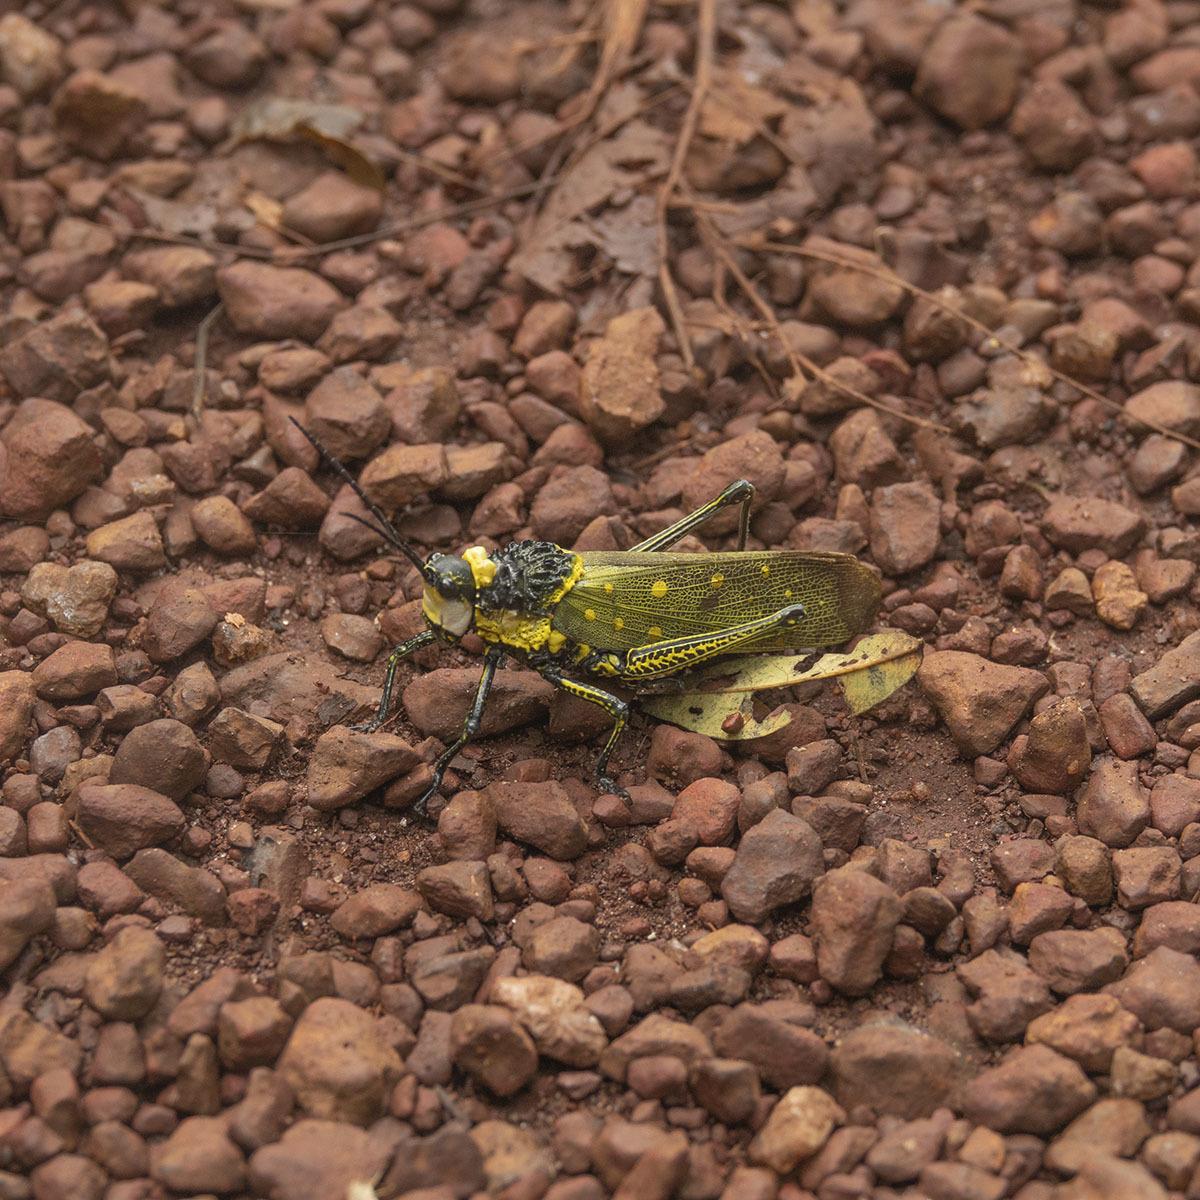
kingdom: Animalia
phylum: Arthropoda
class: Insecta
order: Orthoptera
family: Pyrgomorphidae
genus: Aularches
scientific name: Aularches miliaris
